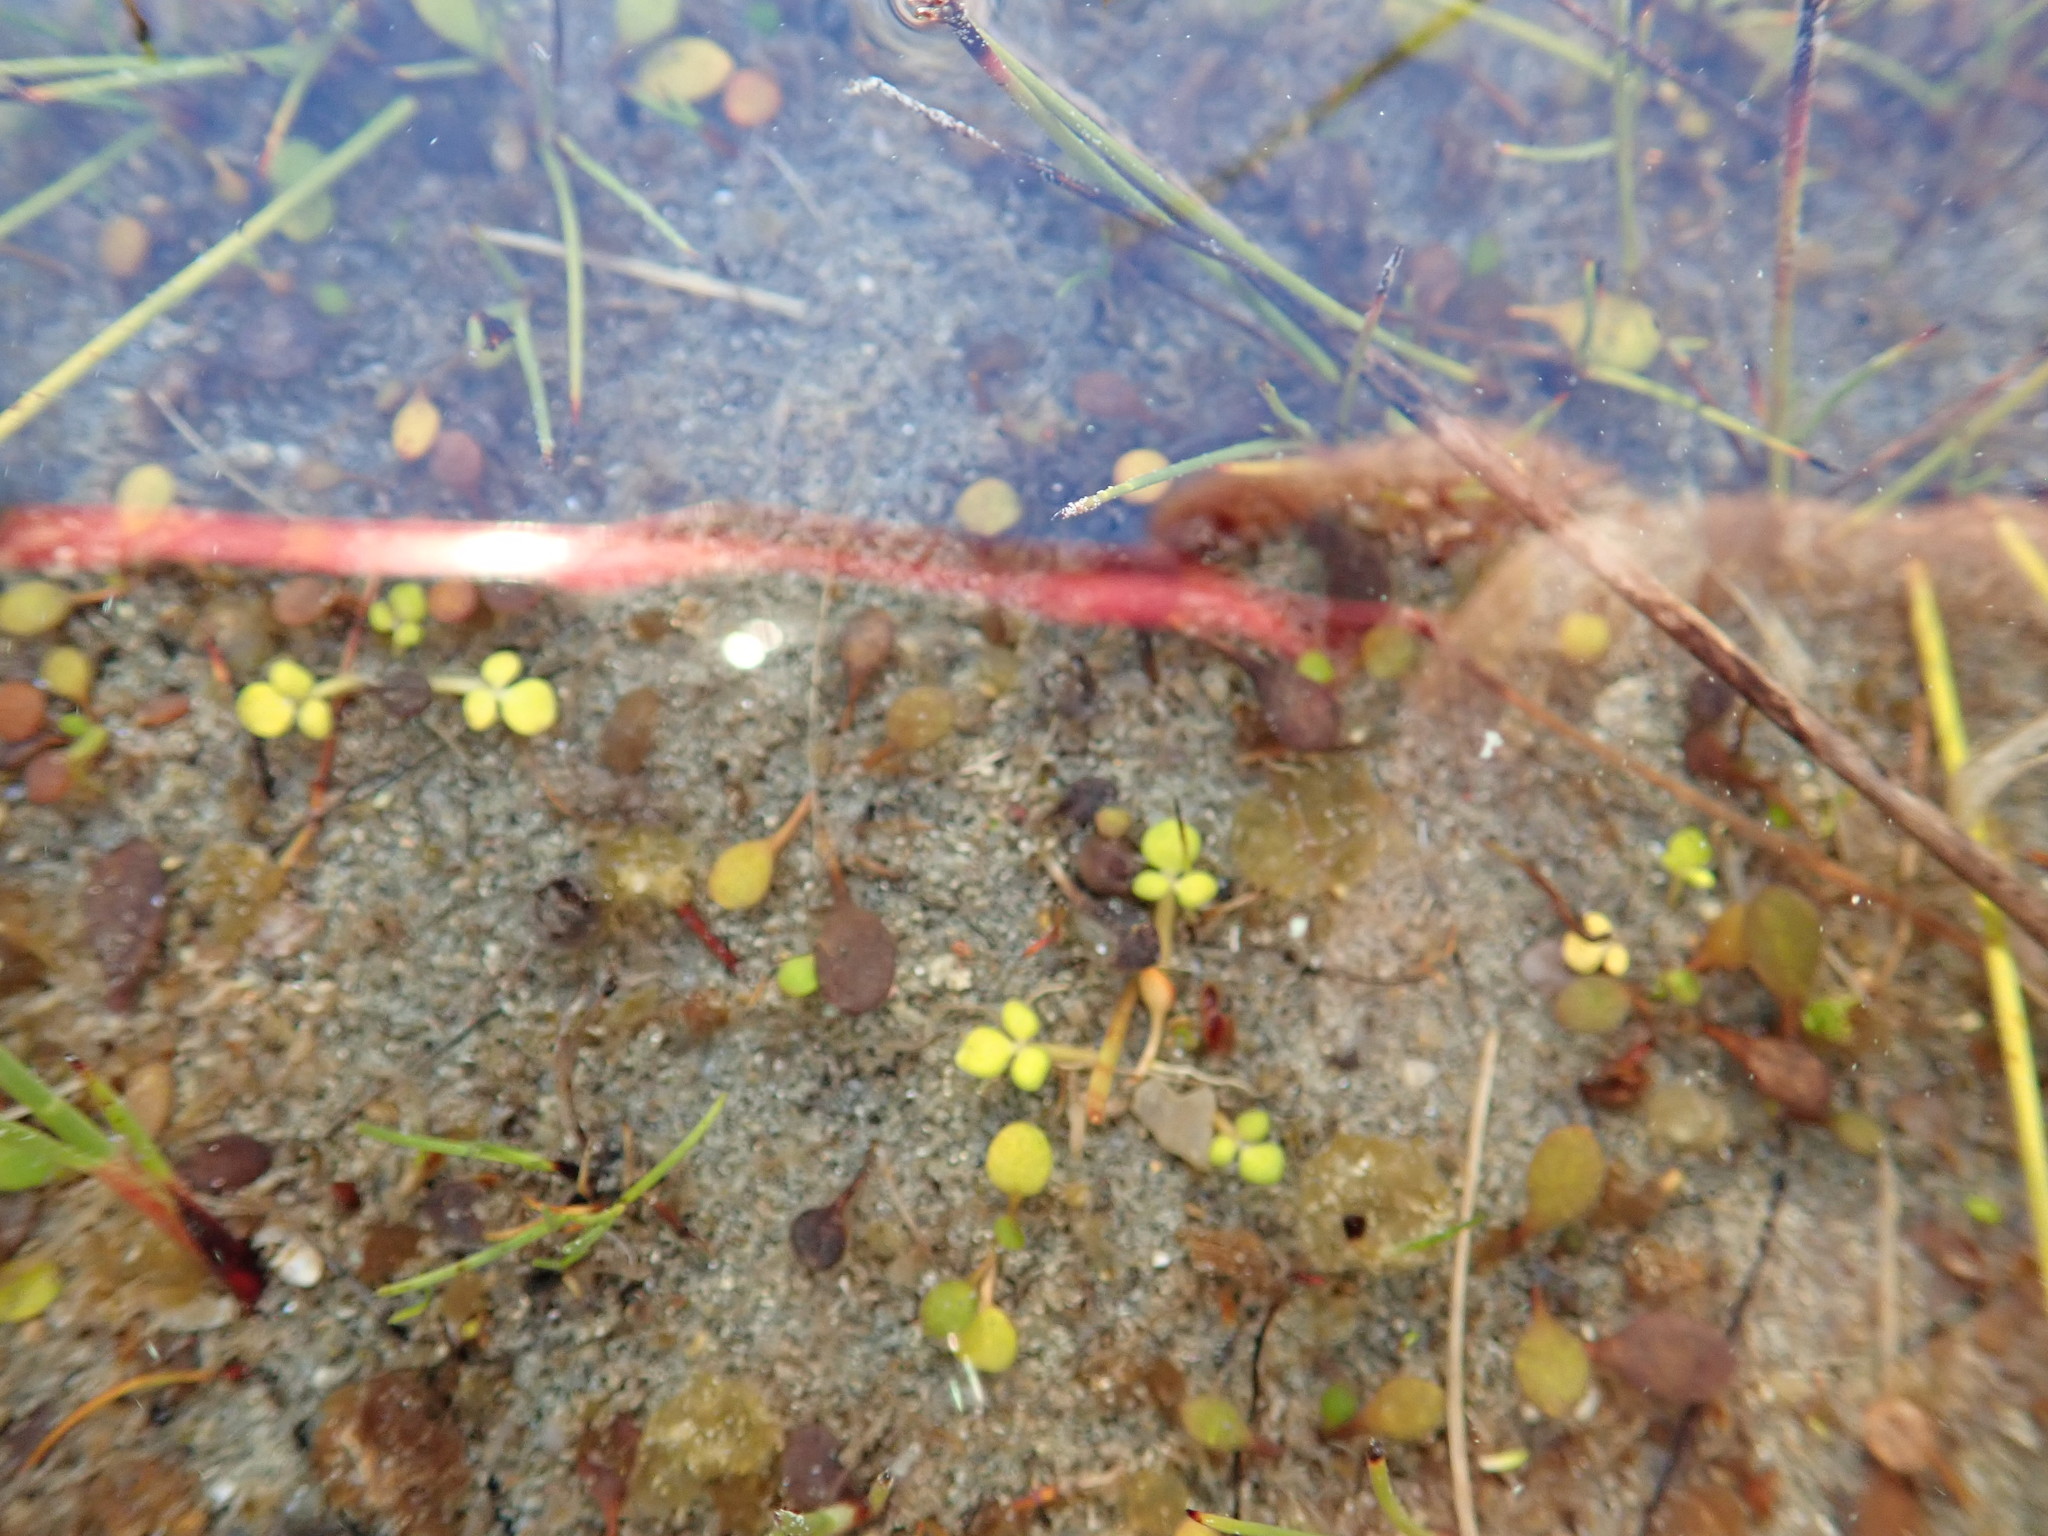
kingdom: Plantae
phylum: Tracheophyta
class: Magnoliopsida
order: Ranunculales
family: Ranunculaceae
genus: Ranunculus
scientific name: Ranunculus acaulis
